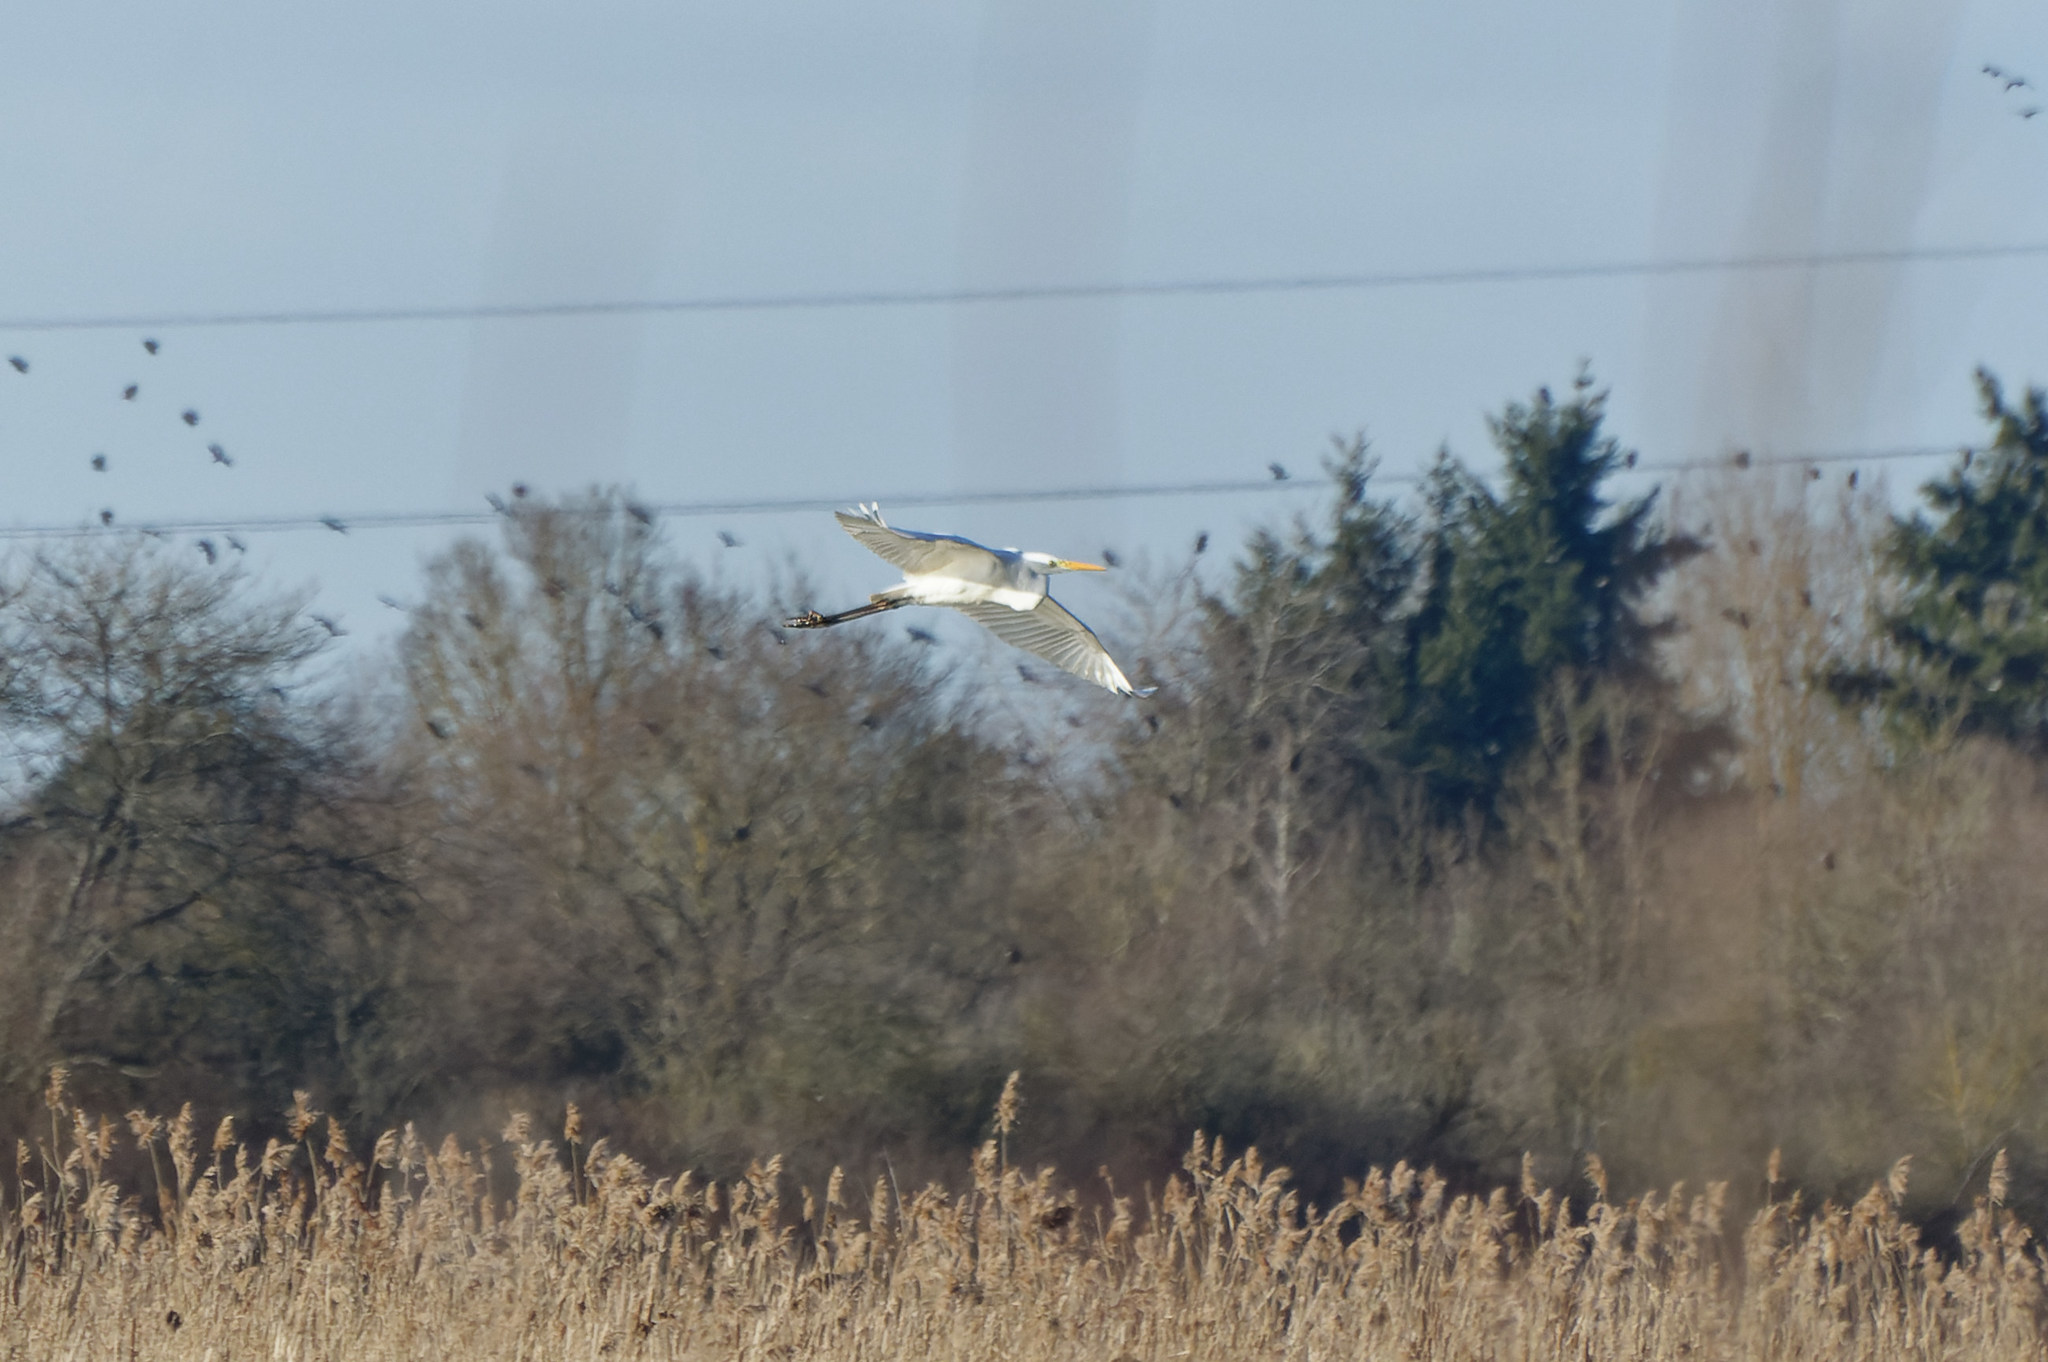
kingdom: Animalia
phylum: Chordata
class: Aves
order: Pelecaniformes
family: Ardeidae
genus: Ardea
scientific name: Ardea alba
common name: Great egret
